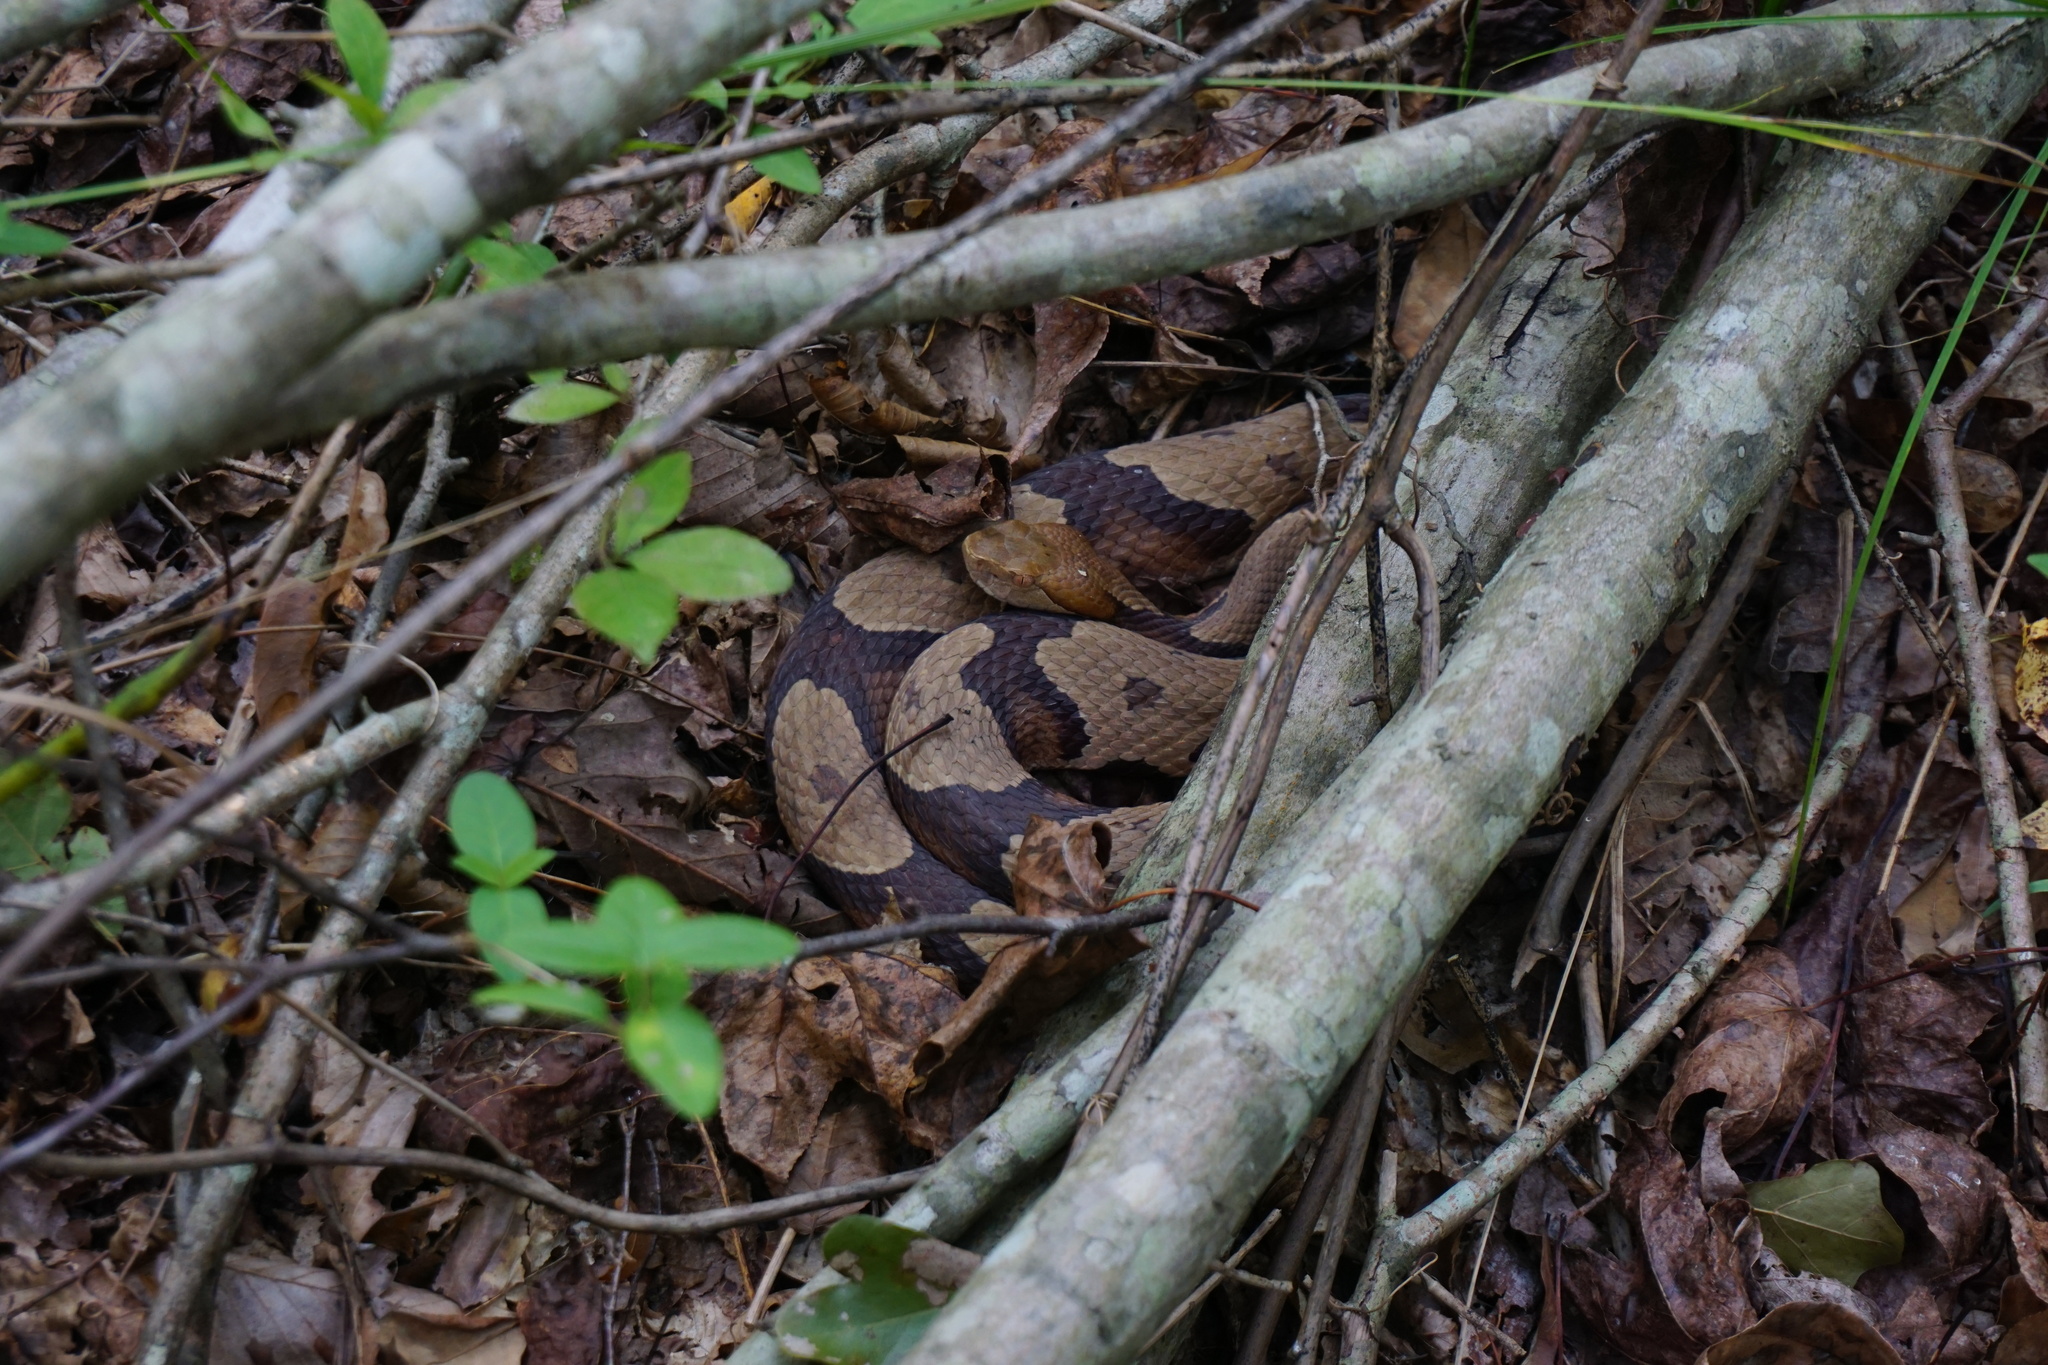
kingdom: Animalia
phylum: Chordata
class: Squamata
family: Viperidae
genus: Agkistrodon
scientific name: Agkistrodon contortrix
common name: Northern copperhead
